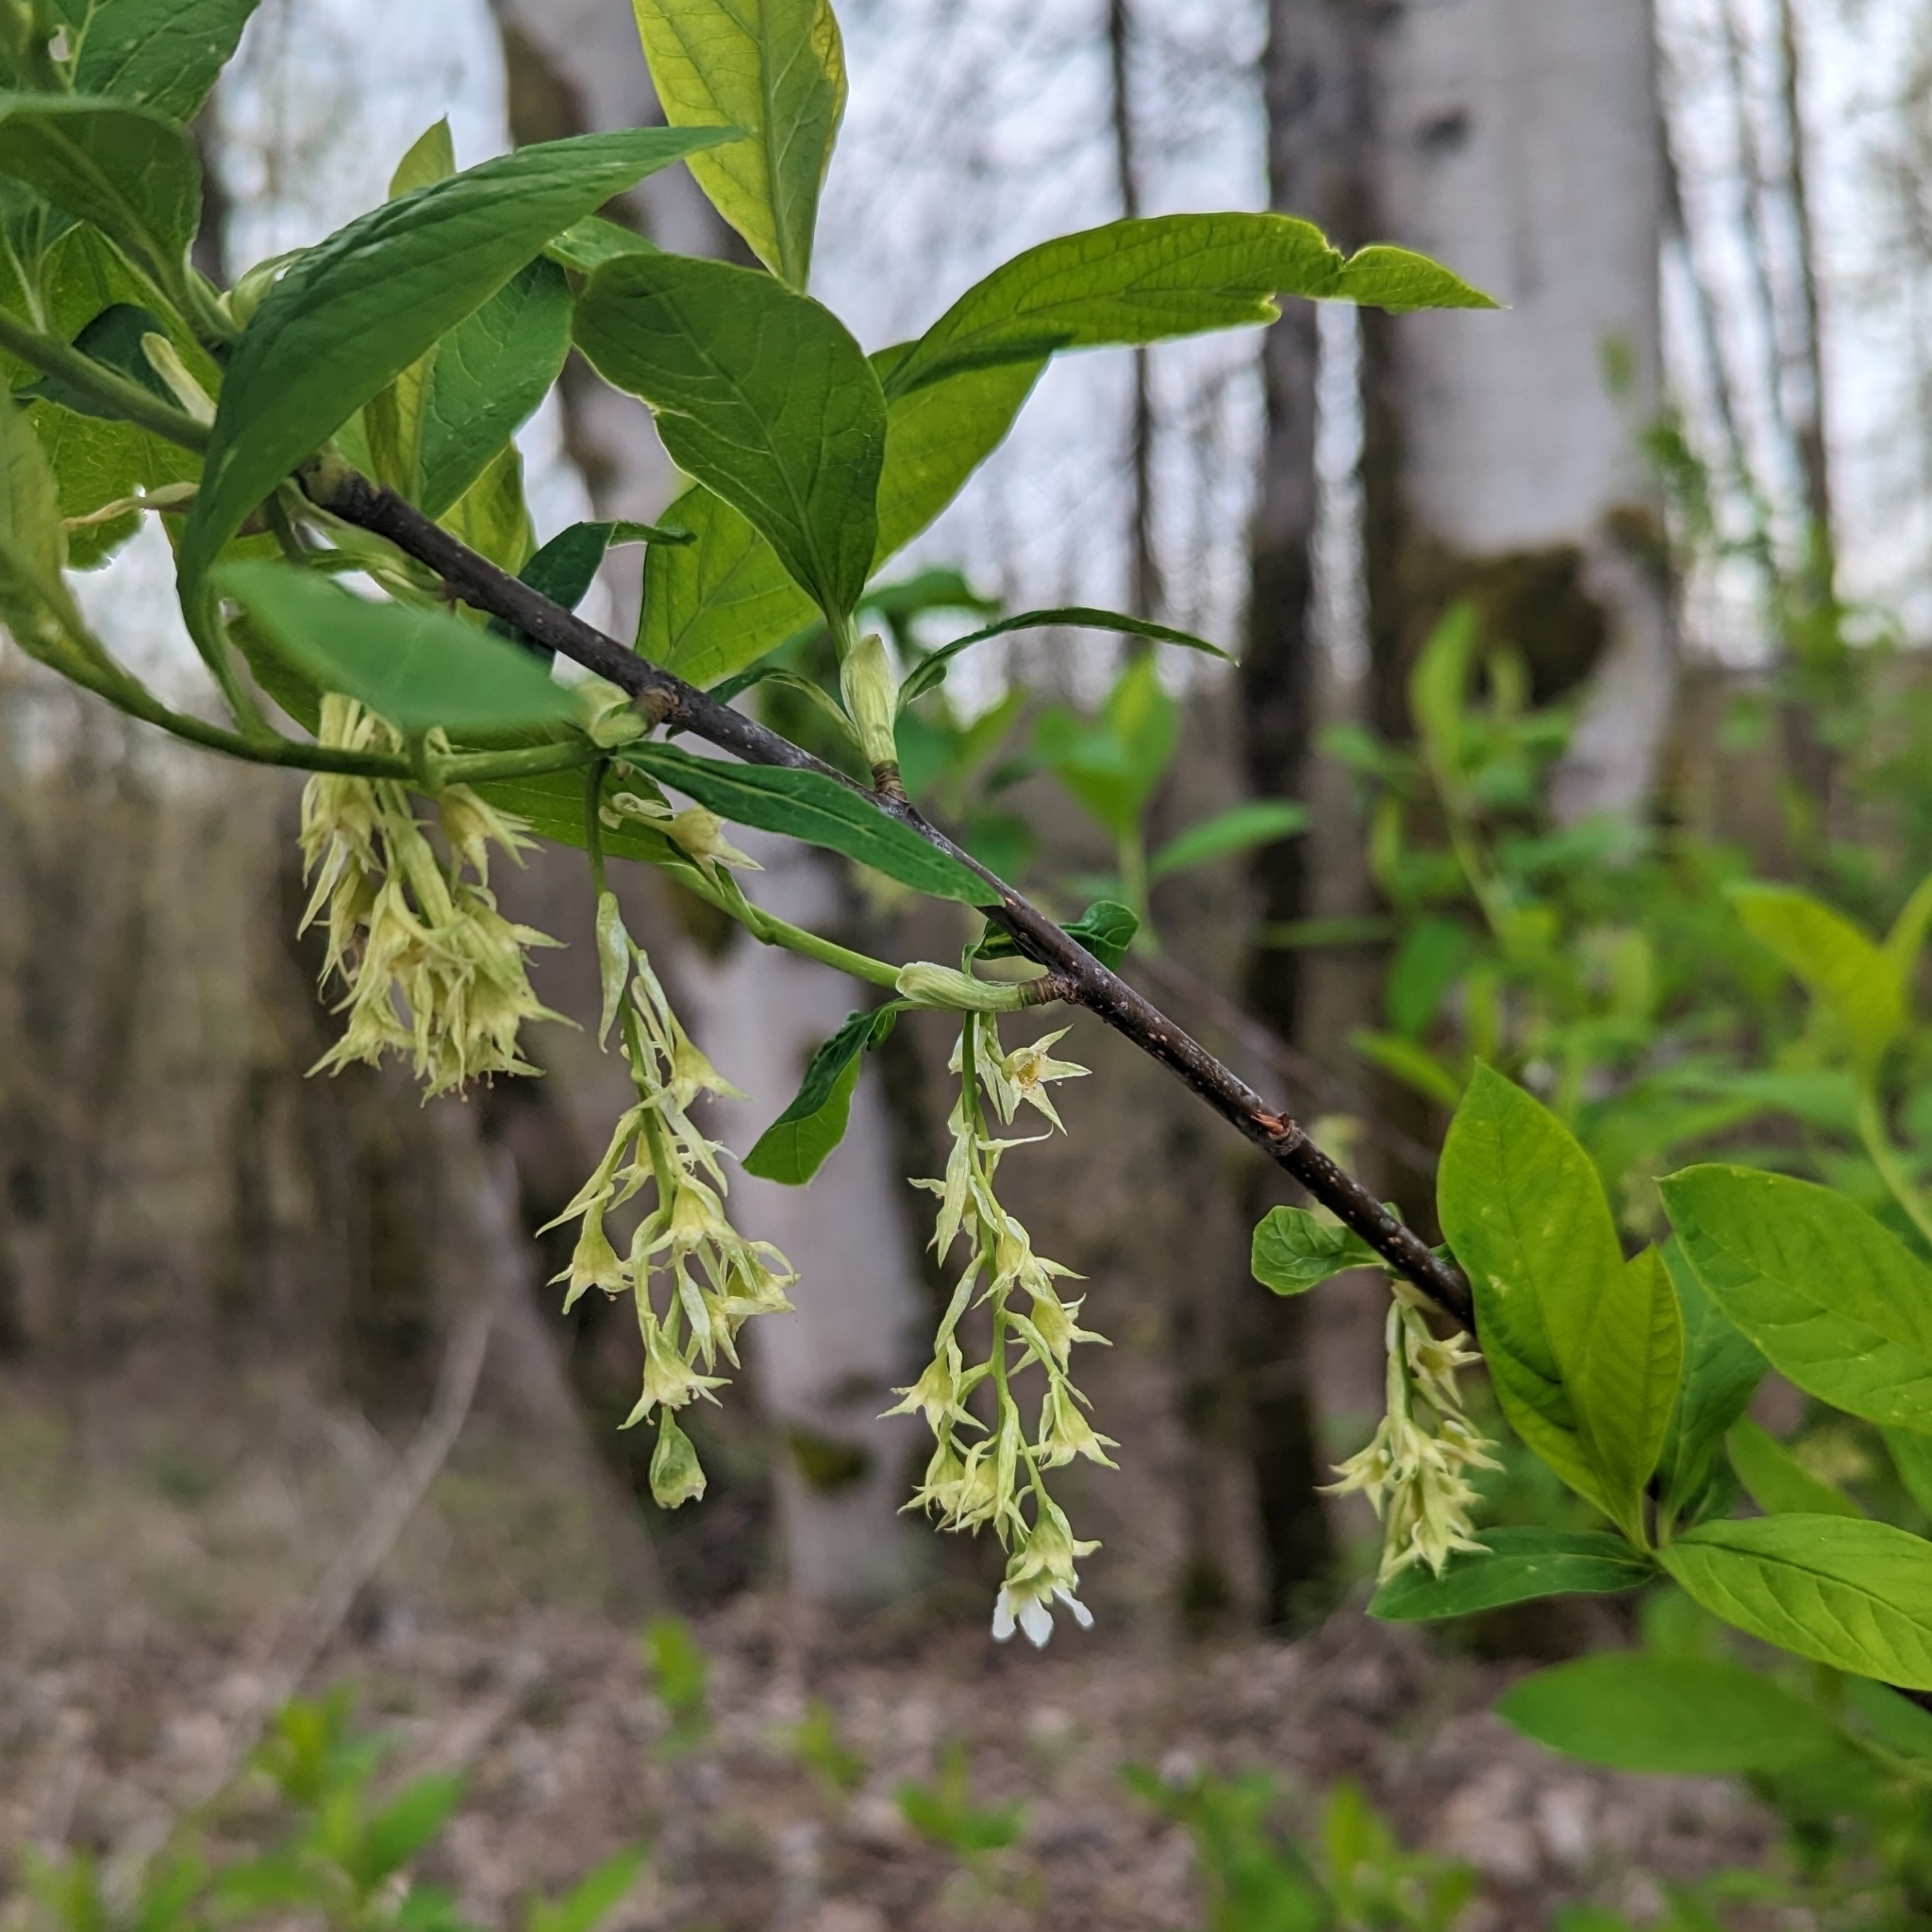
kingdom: Plantae
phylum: Tracheophyta
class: Magnoliopsida
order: Rosales
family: Rosaceae
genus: Oemleria
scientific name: Oemleria cerasiformis
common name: Osoberry
